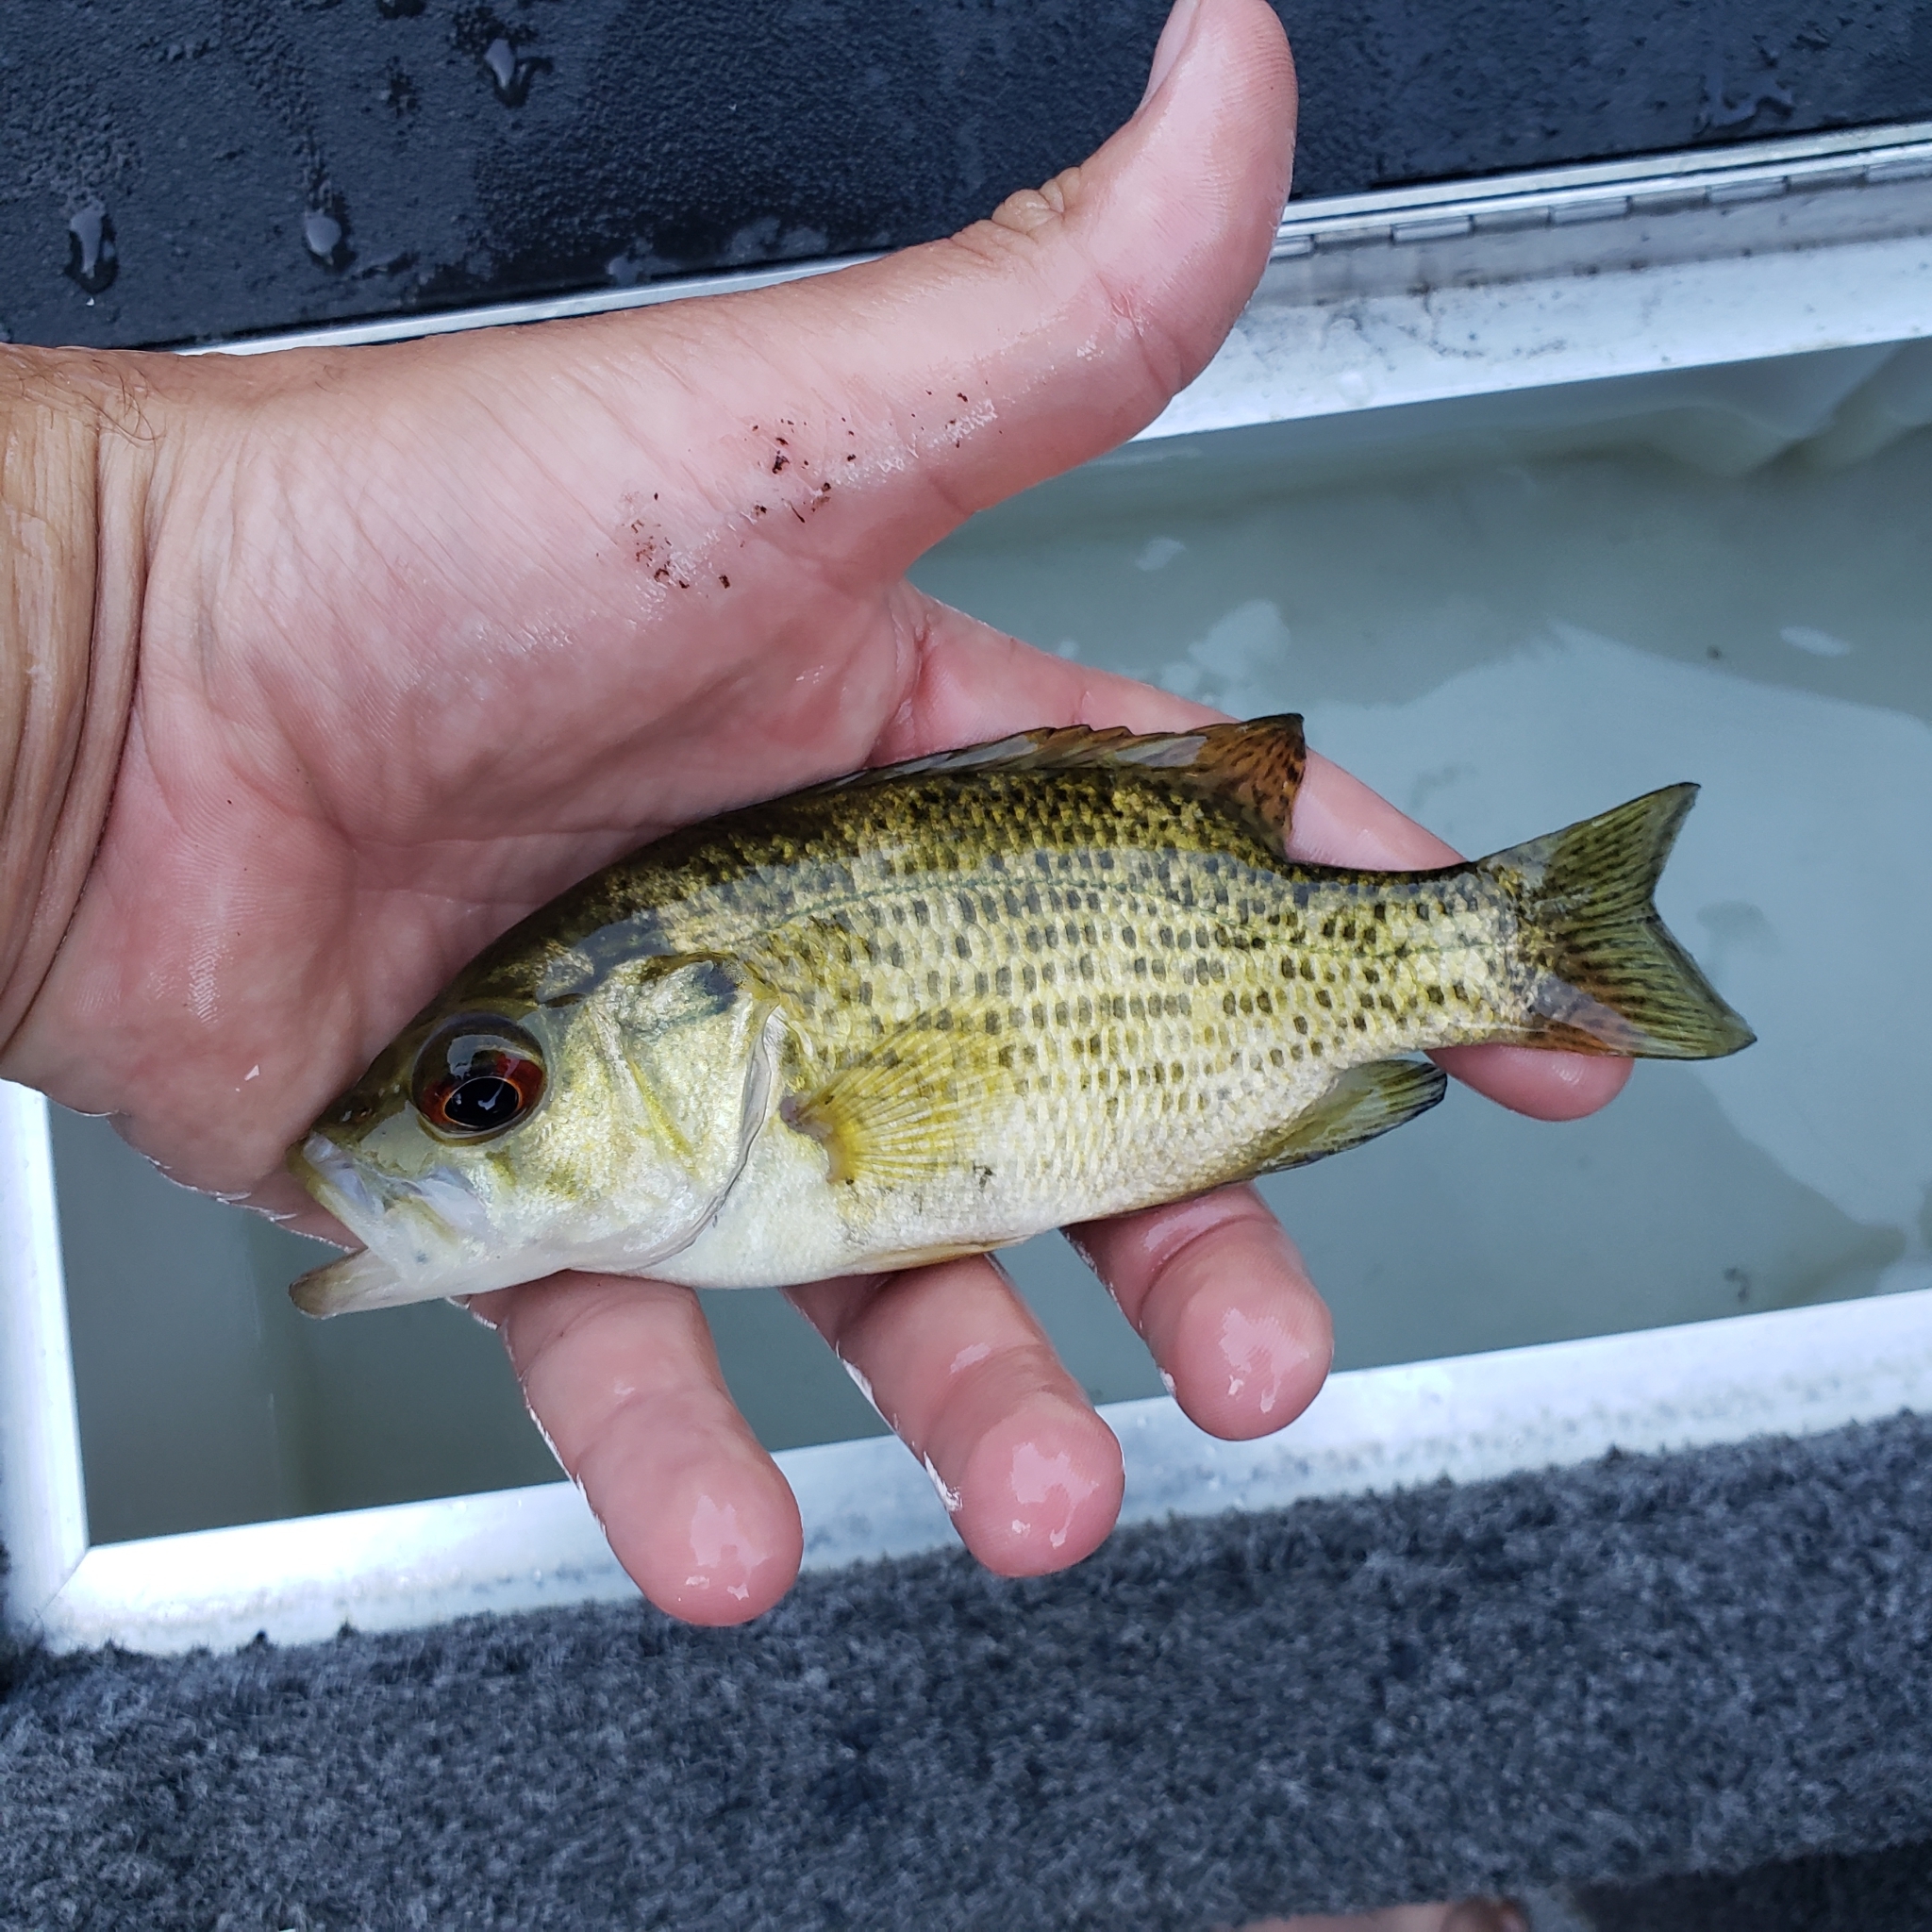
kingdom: Animalia
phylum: Chordata
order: Perciformes
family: Centrarchidae
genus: Ambloplites
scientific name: Ambloplites rupestris
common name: Rock bass
